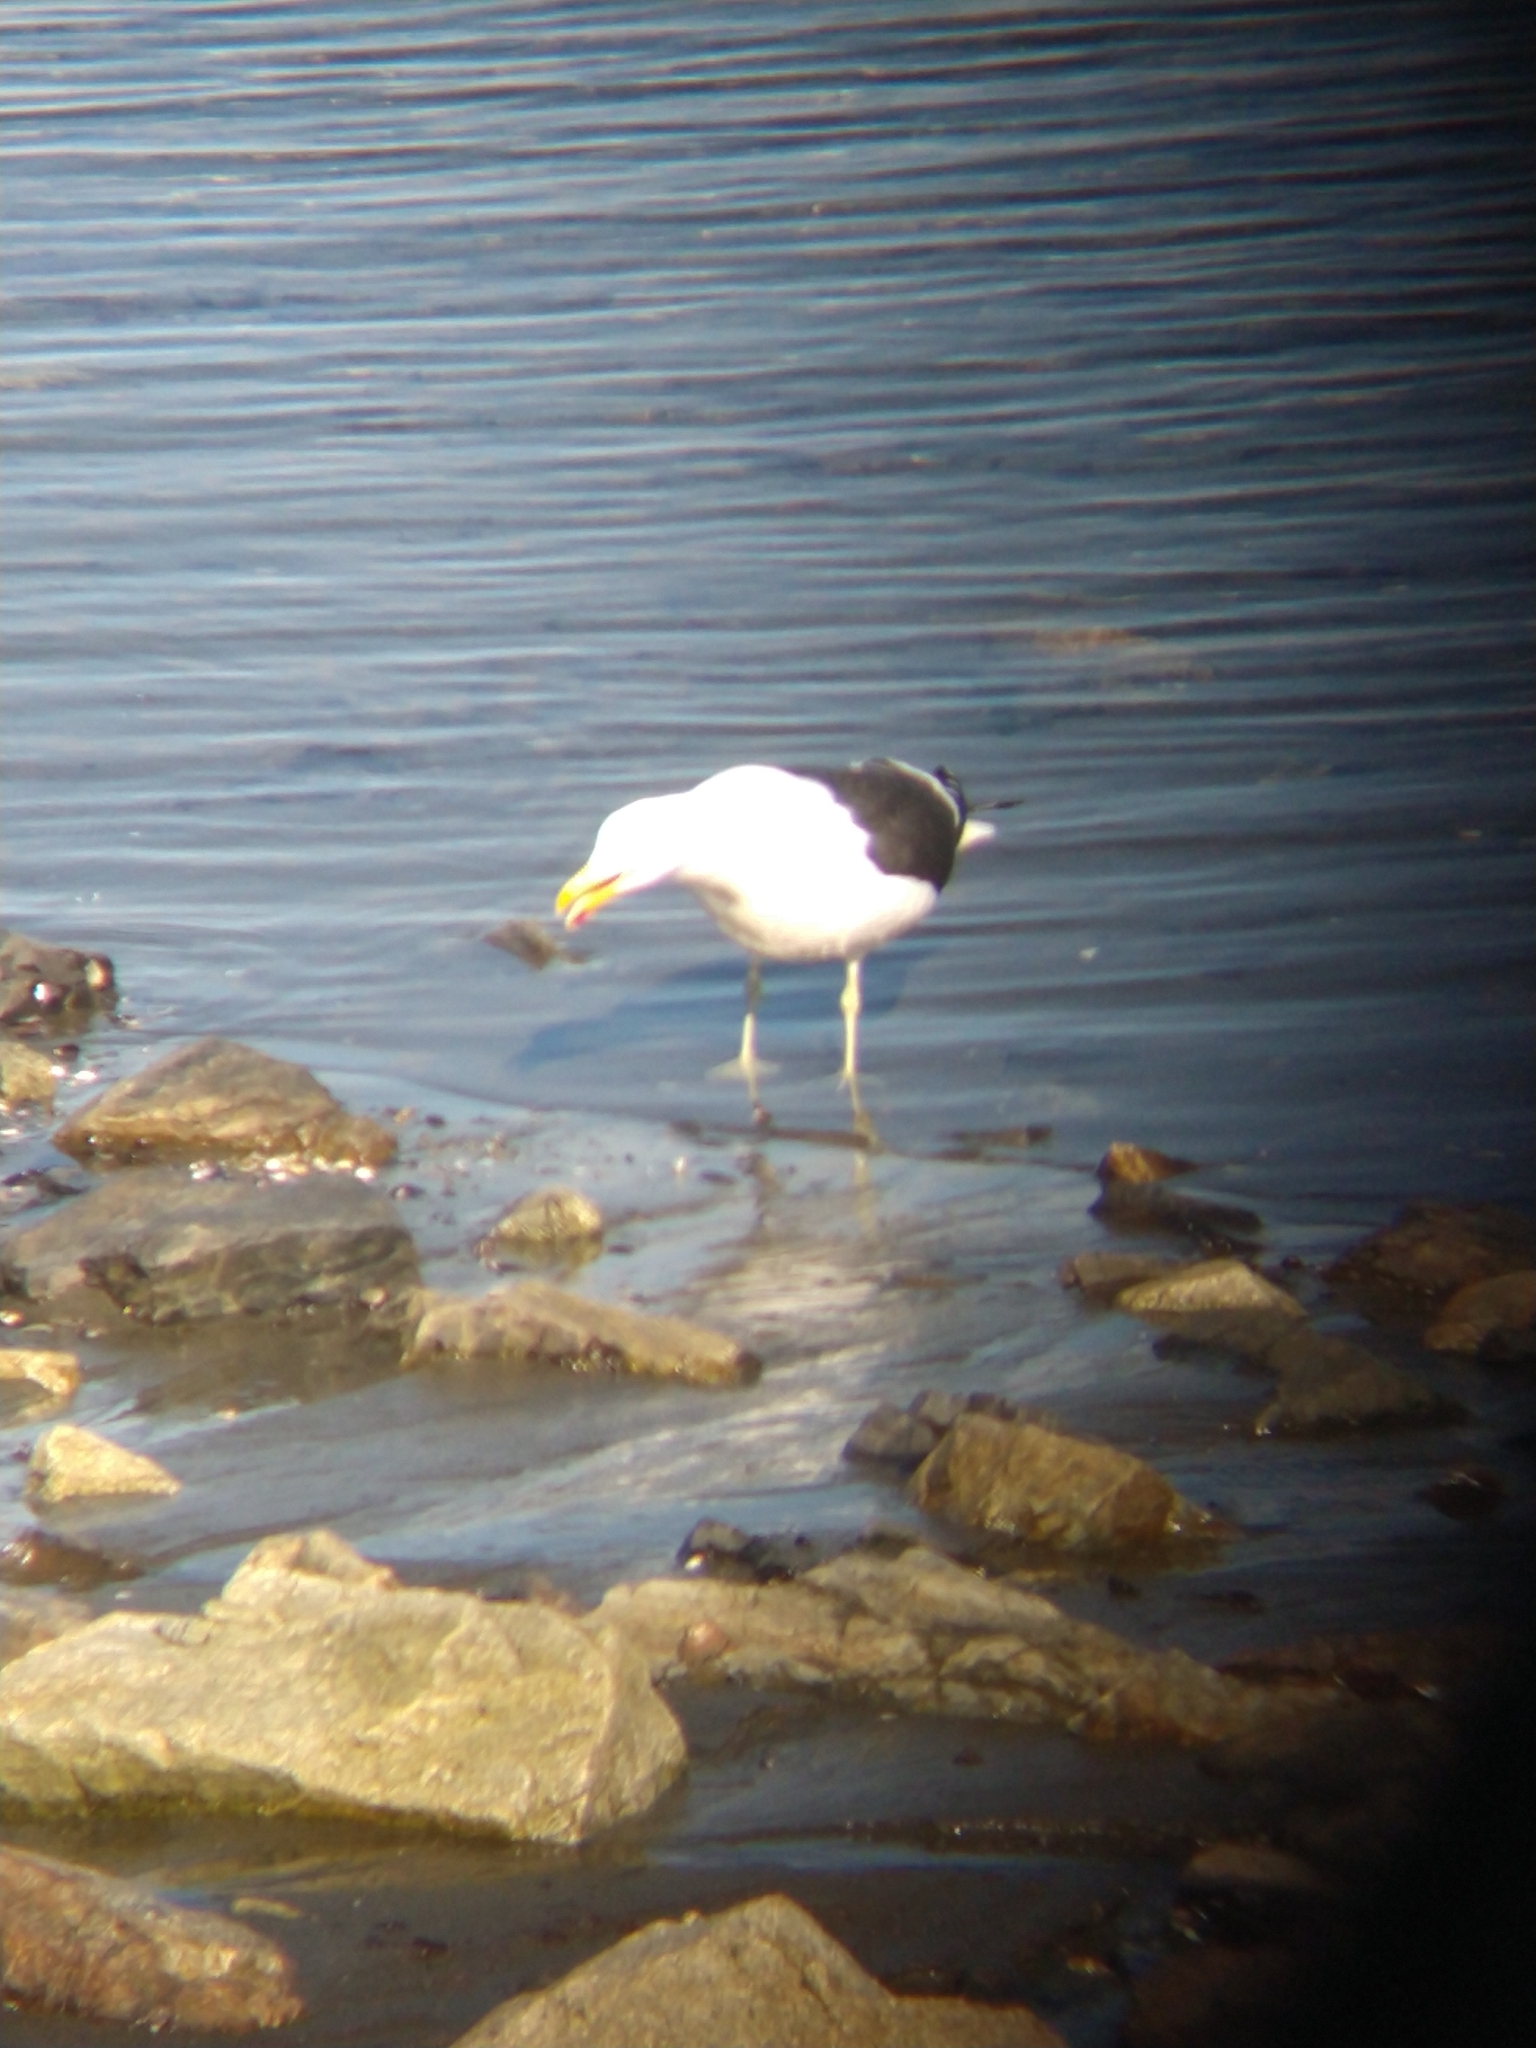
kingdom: Animalia
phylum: Chordata
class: Aves
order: Charadriiformes
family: Laridae
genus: Larus
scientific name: Larus dominicanus
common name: Kelp gull
